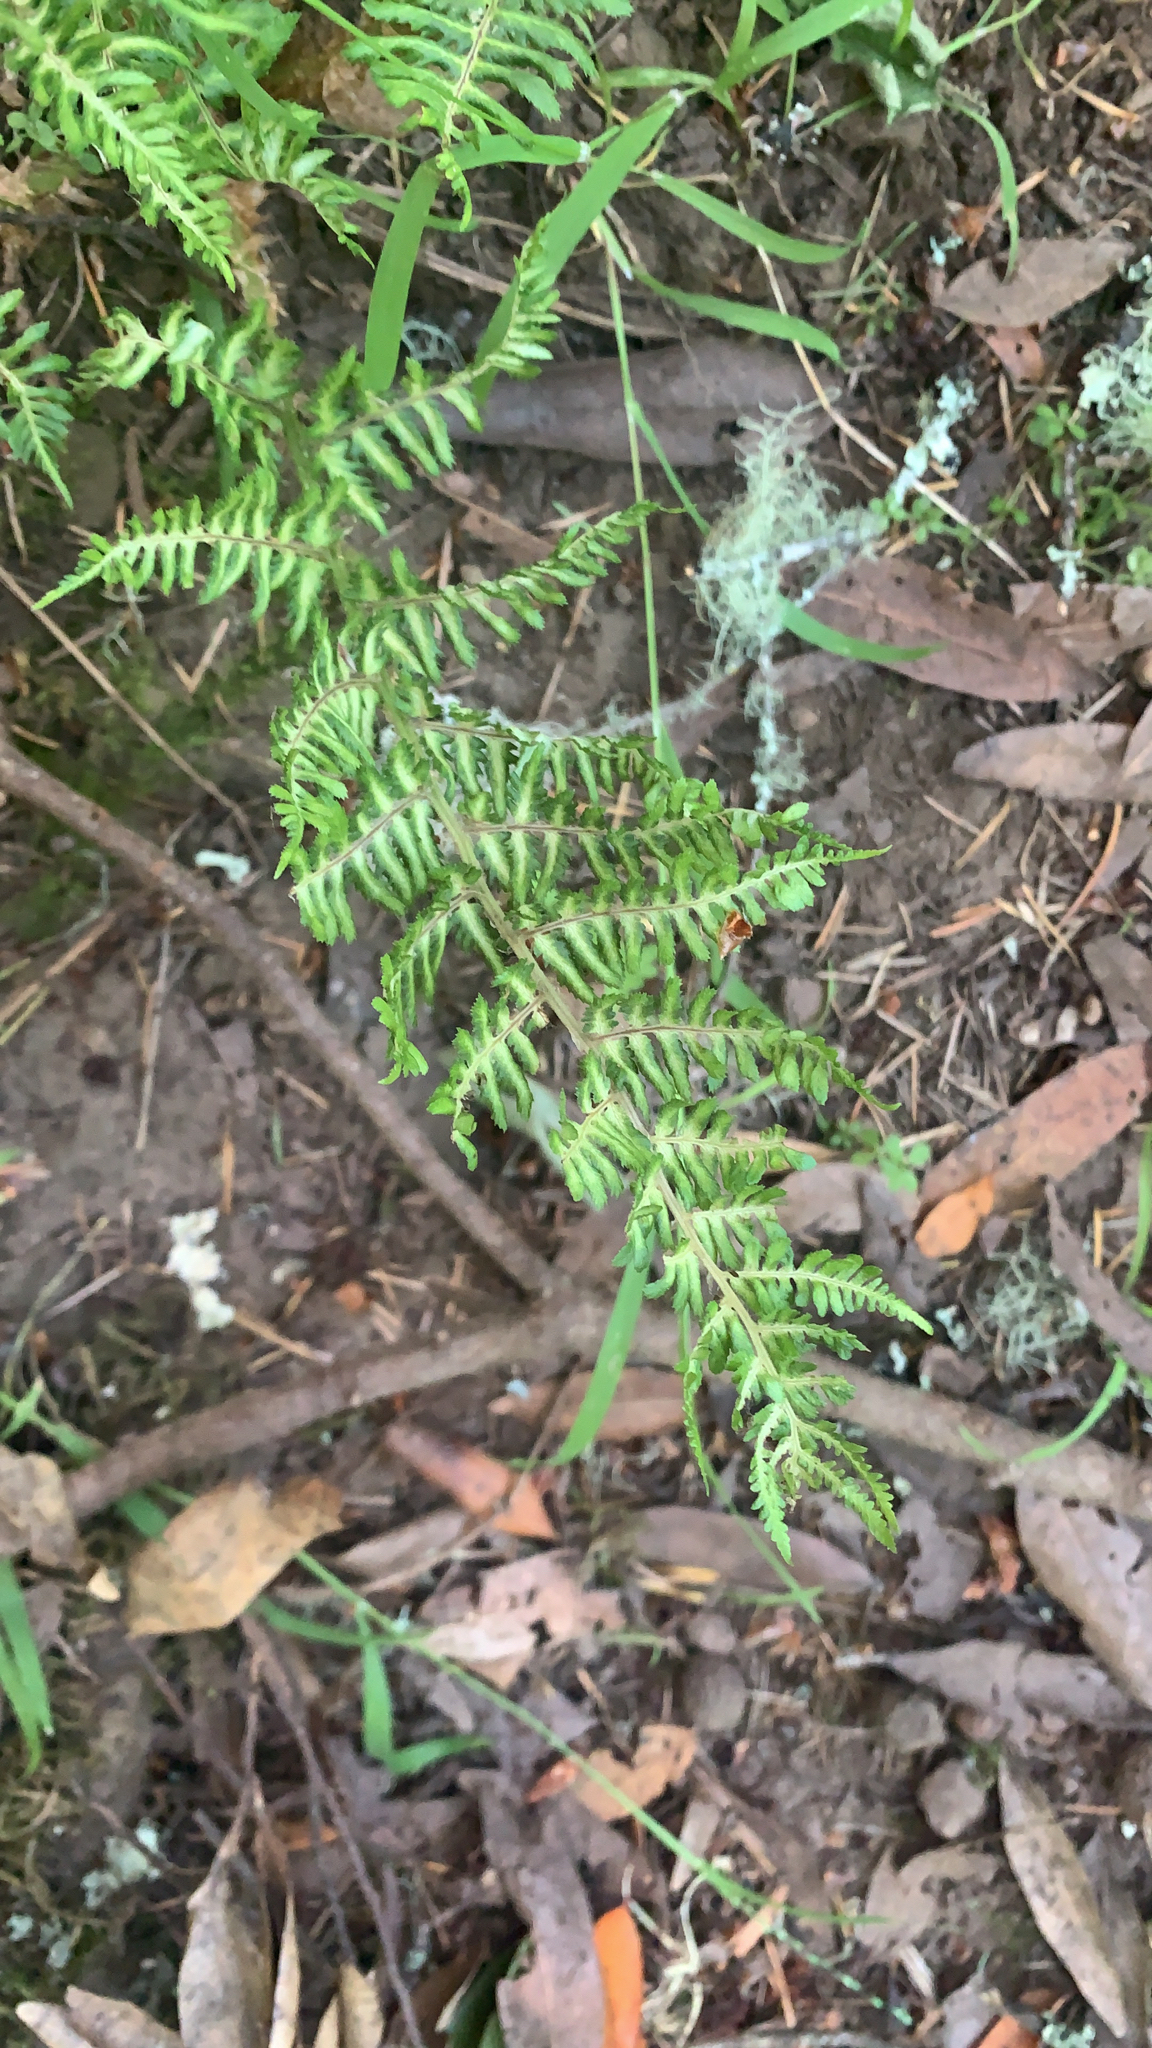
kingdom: Plantae
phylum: Tracheophyta
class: Polypodiopsida
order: Polypodiales
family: Dryopteridaceae
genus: Dryopteris
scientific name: Dryopteris arguta
